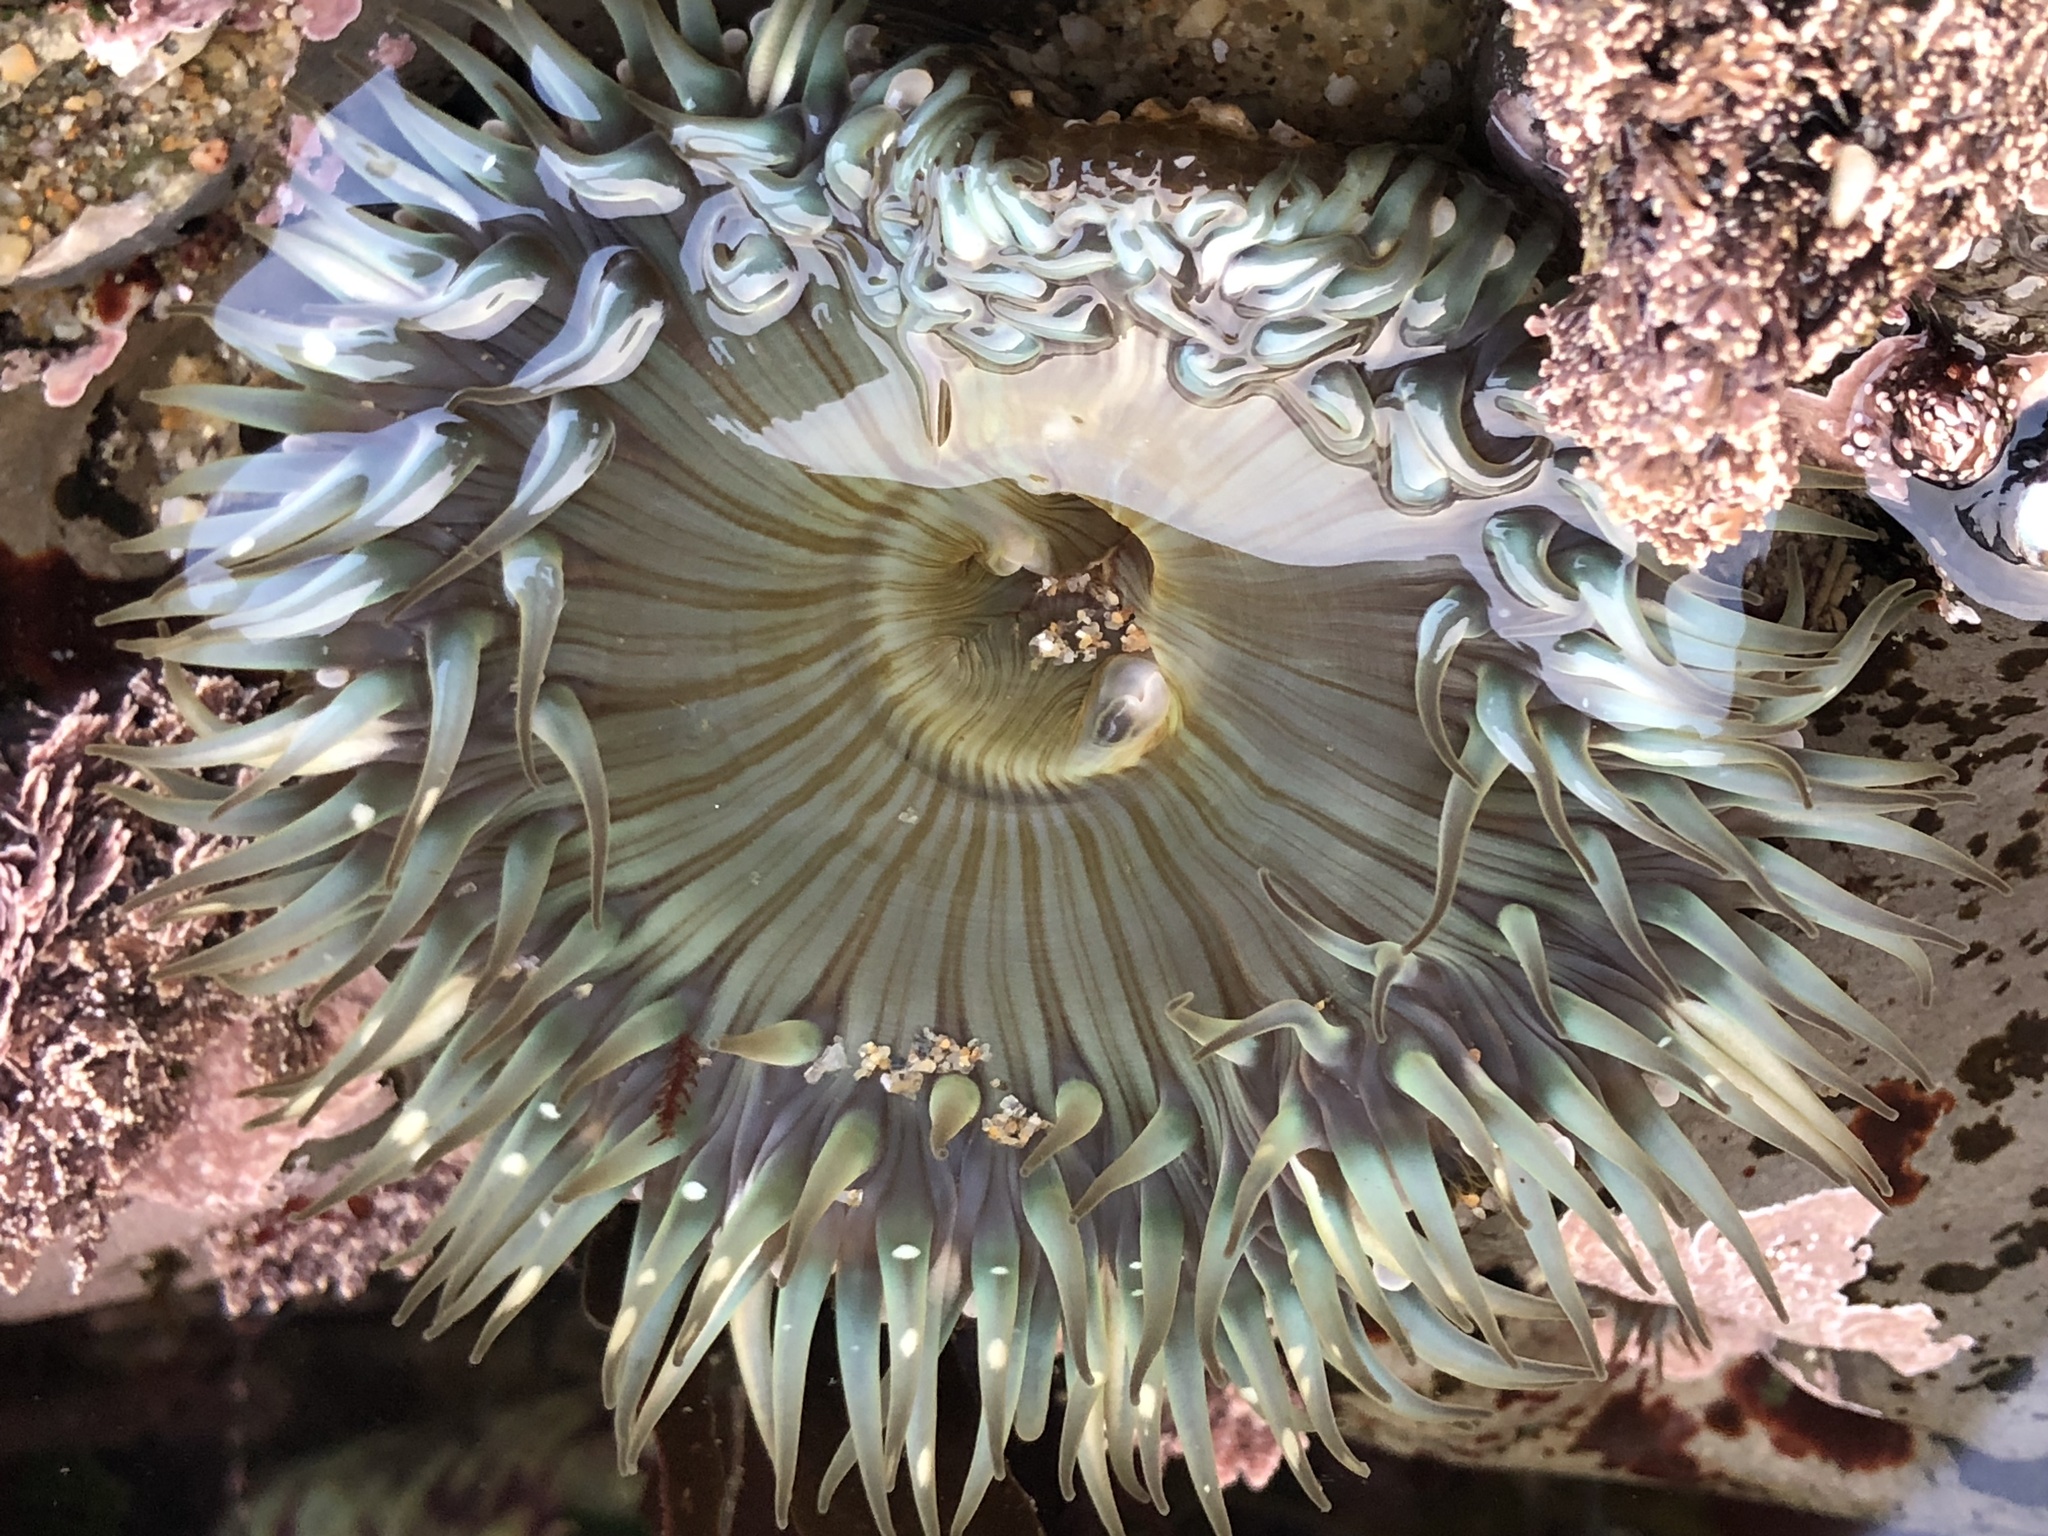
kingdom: Animalia
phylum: Cnidaria
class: Anthozoa
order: Actiniaria
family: Actiniidae
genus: Anthopleura
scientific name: Anthopleura sola
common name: Sun anemone
